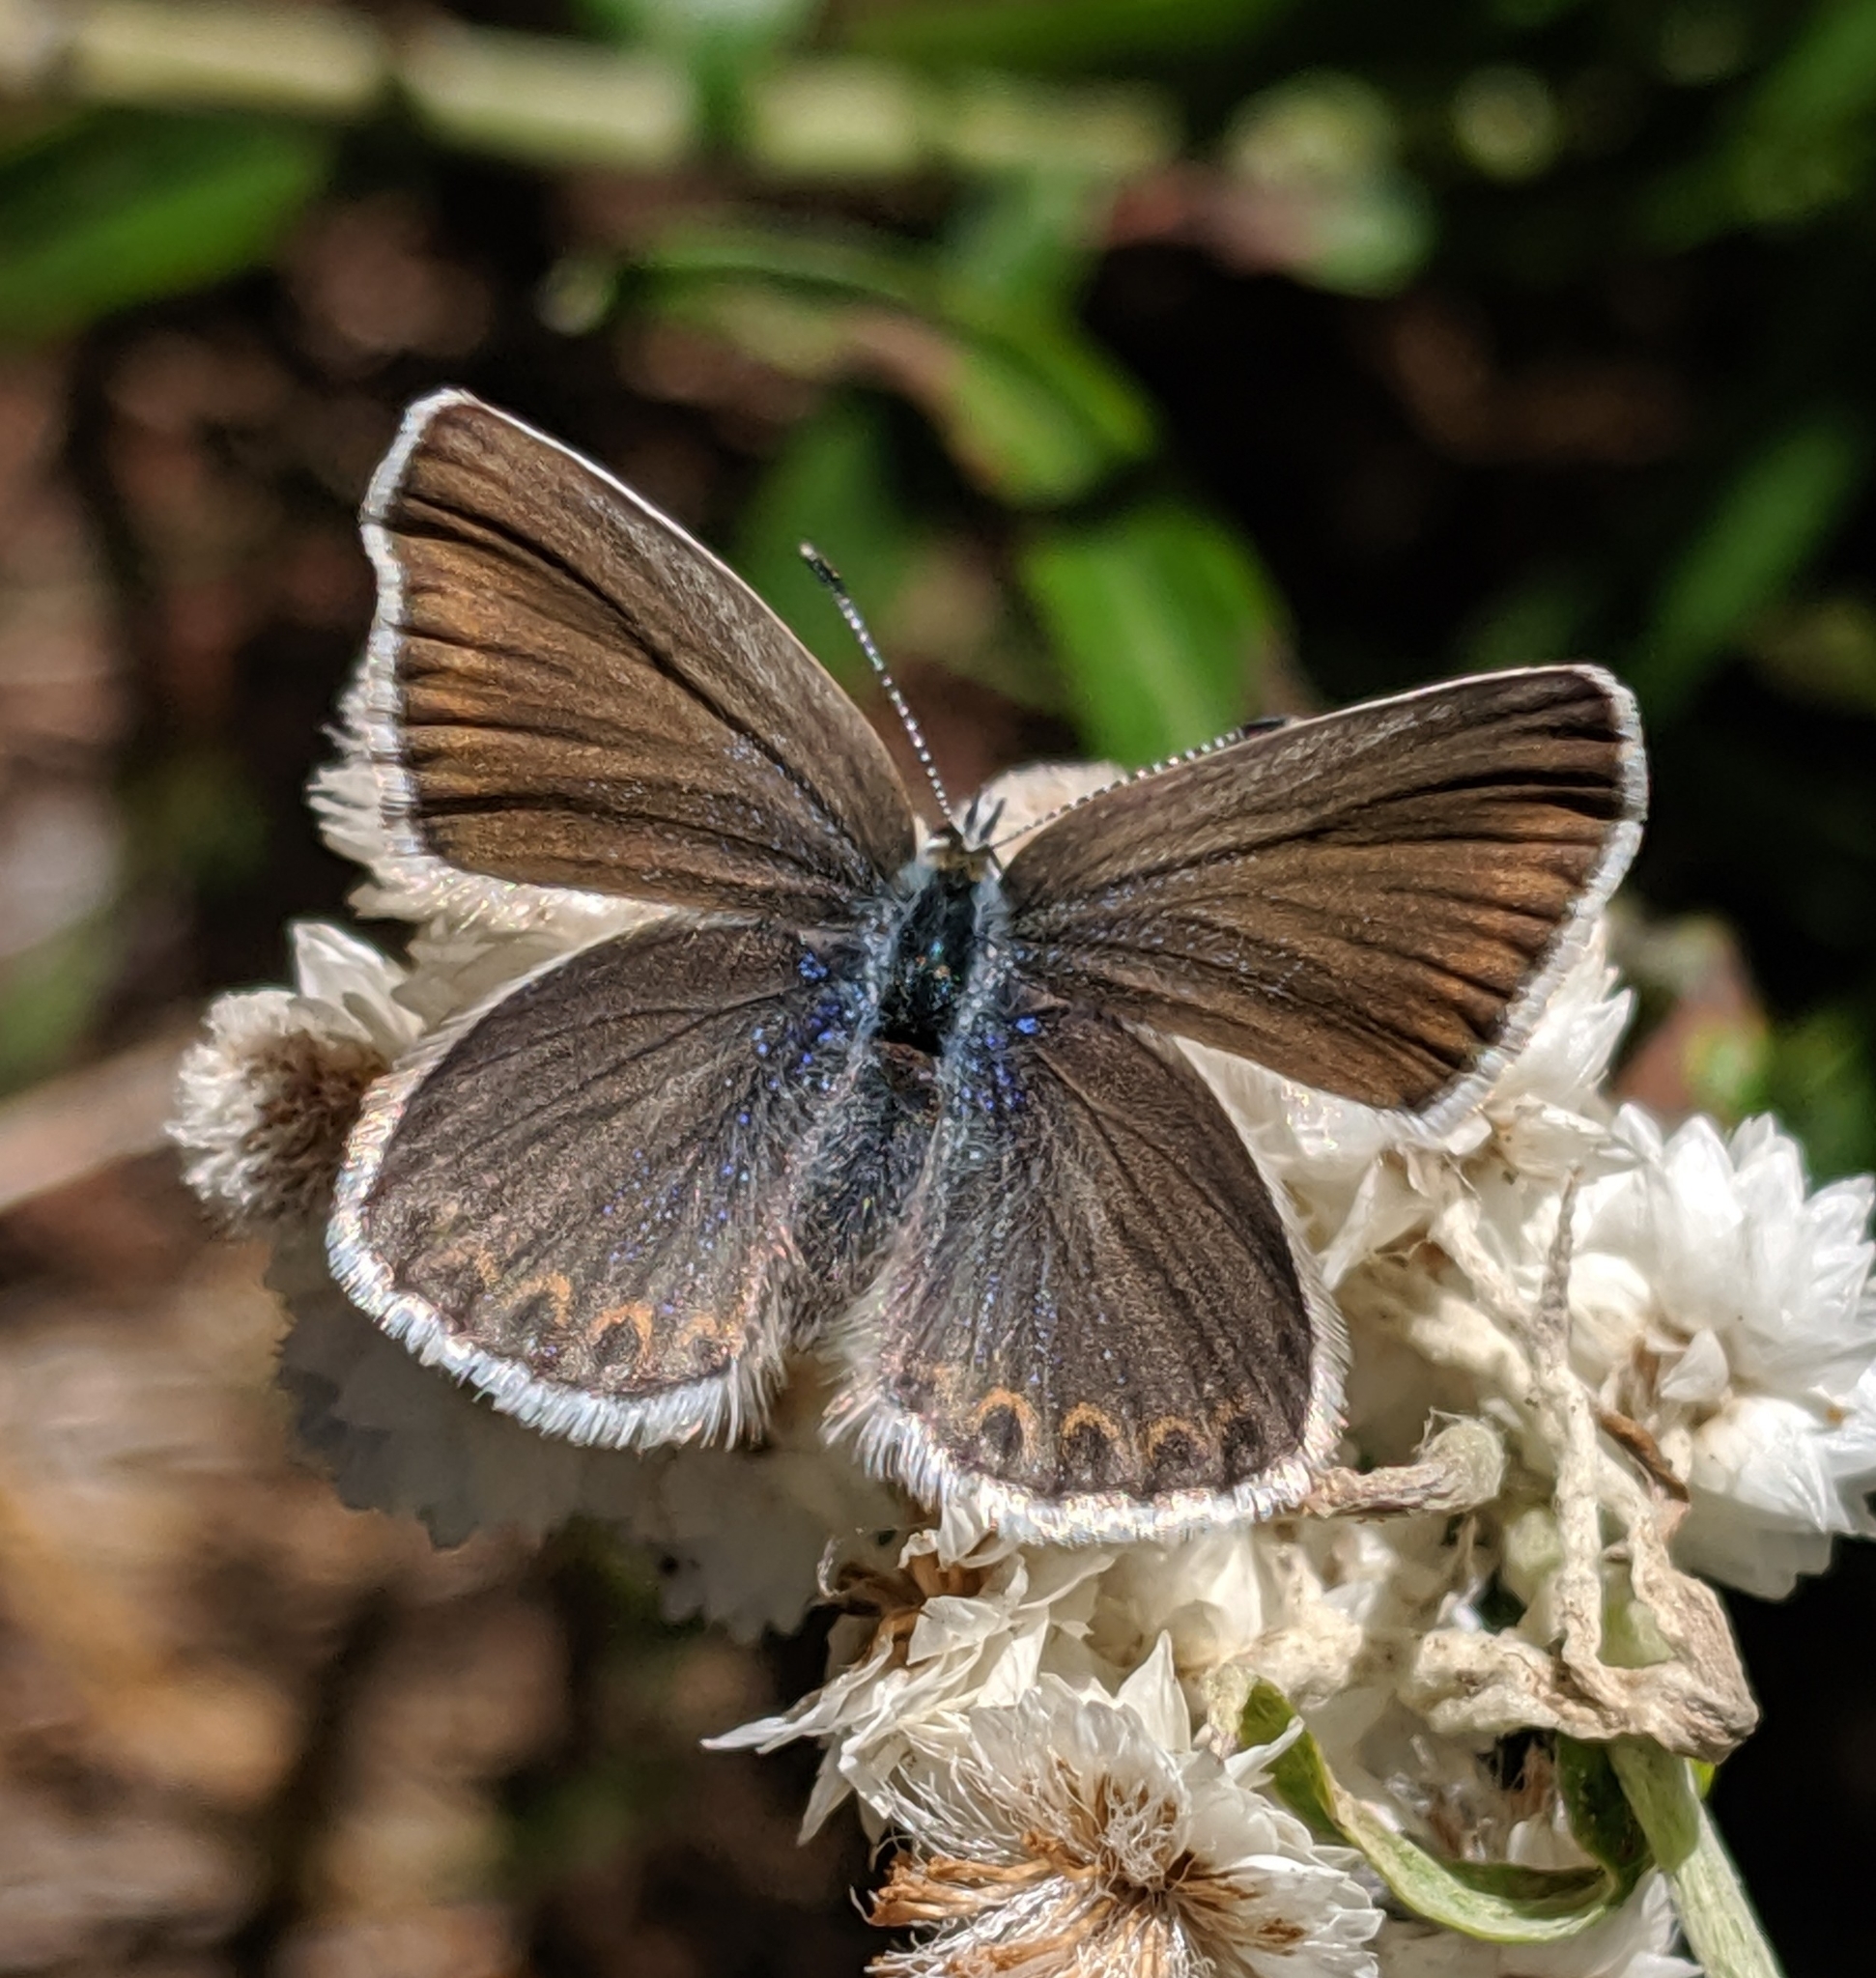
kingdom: Animalia
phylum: Arthropoda
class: Insecta
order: Lepidoptera
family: Lycaenidae
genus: Lycaeides
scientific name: Lycaeides idas
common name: Northern blue
